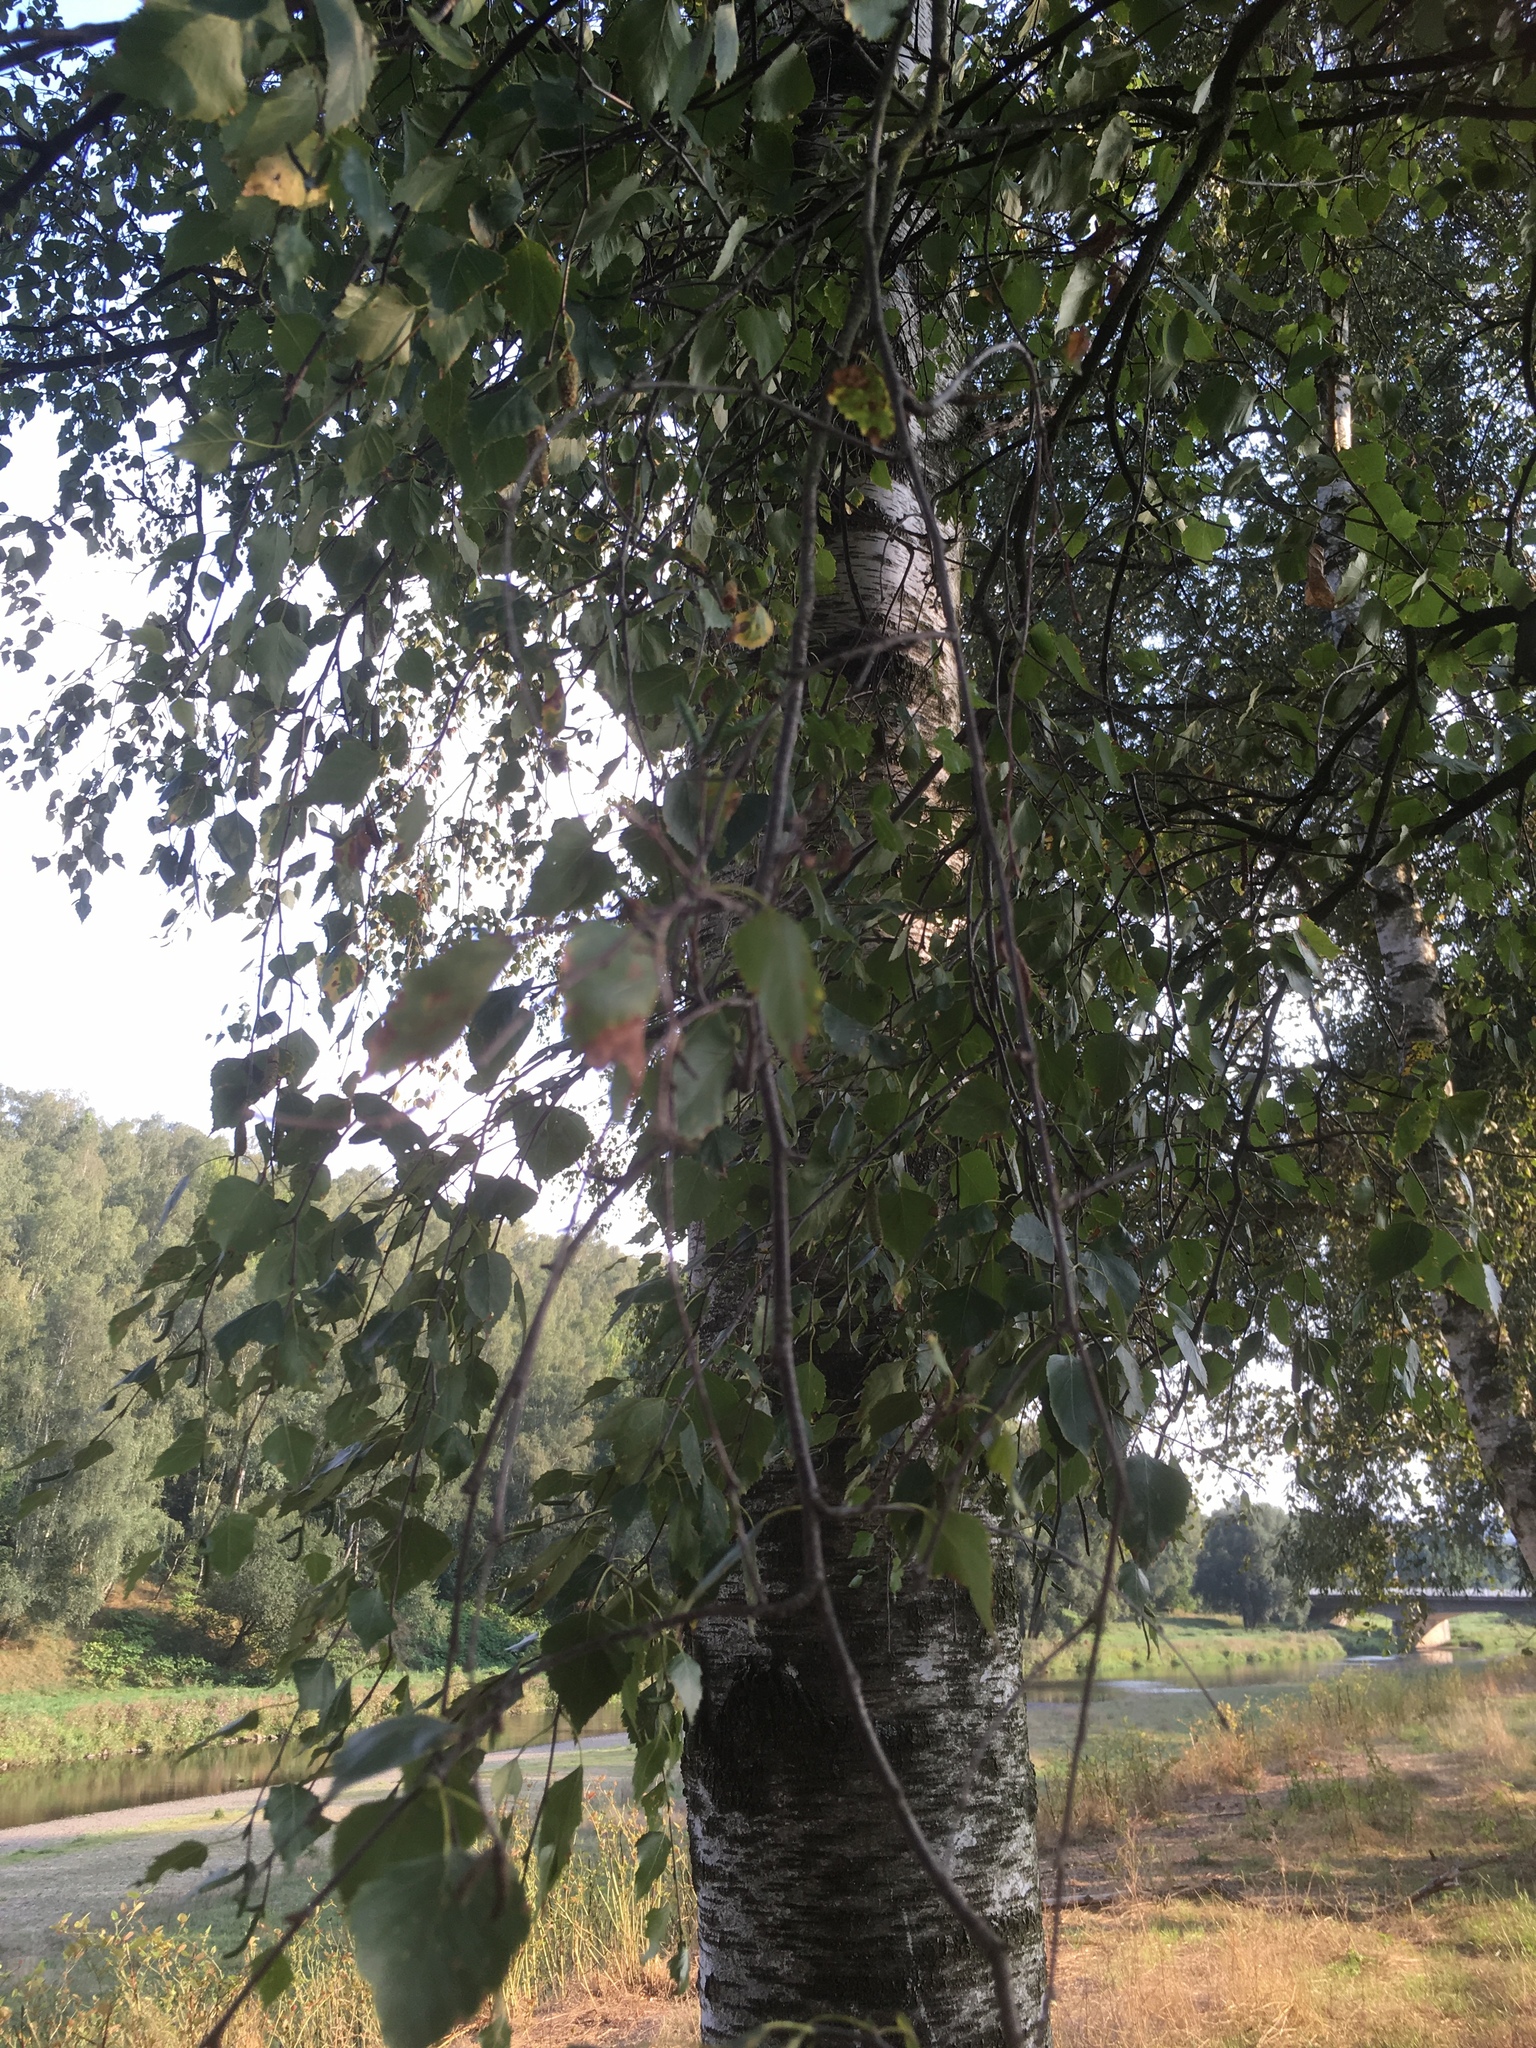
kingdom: Plantae
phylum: Tracheophyta
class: Magnoliopsida
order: Fagales
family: Betulaceae
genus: Betula
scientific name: Betula pendula
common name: Silver birch
